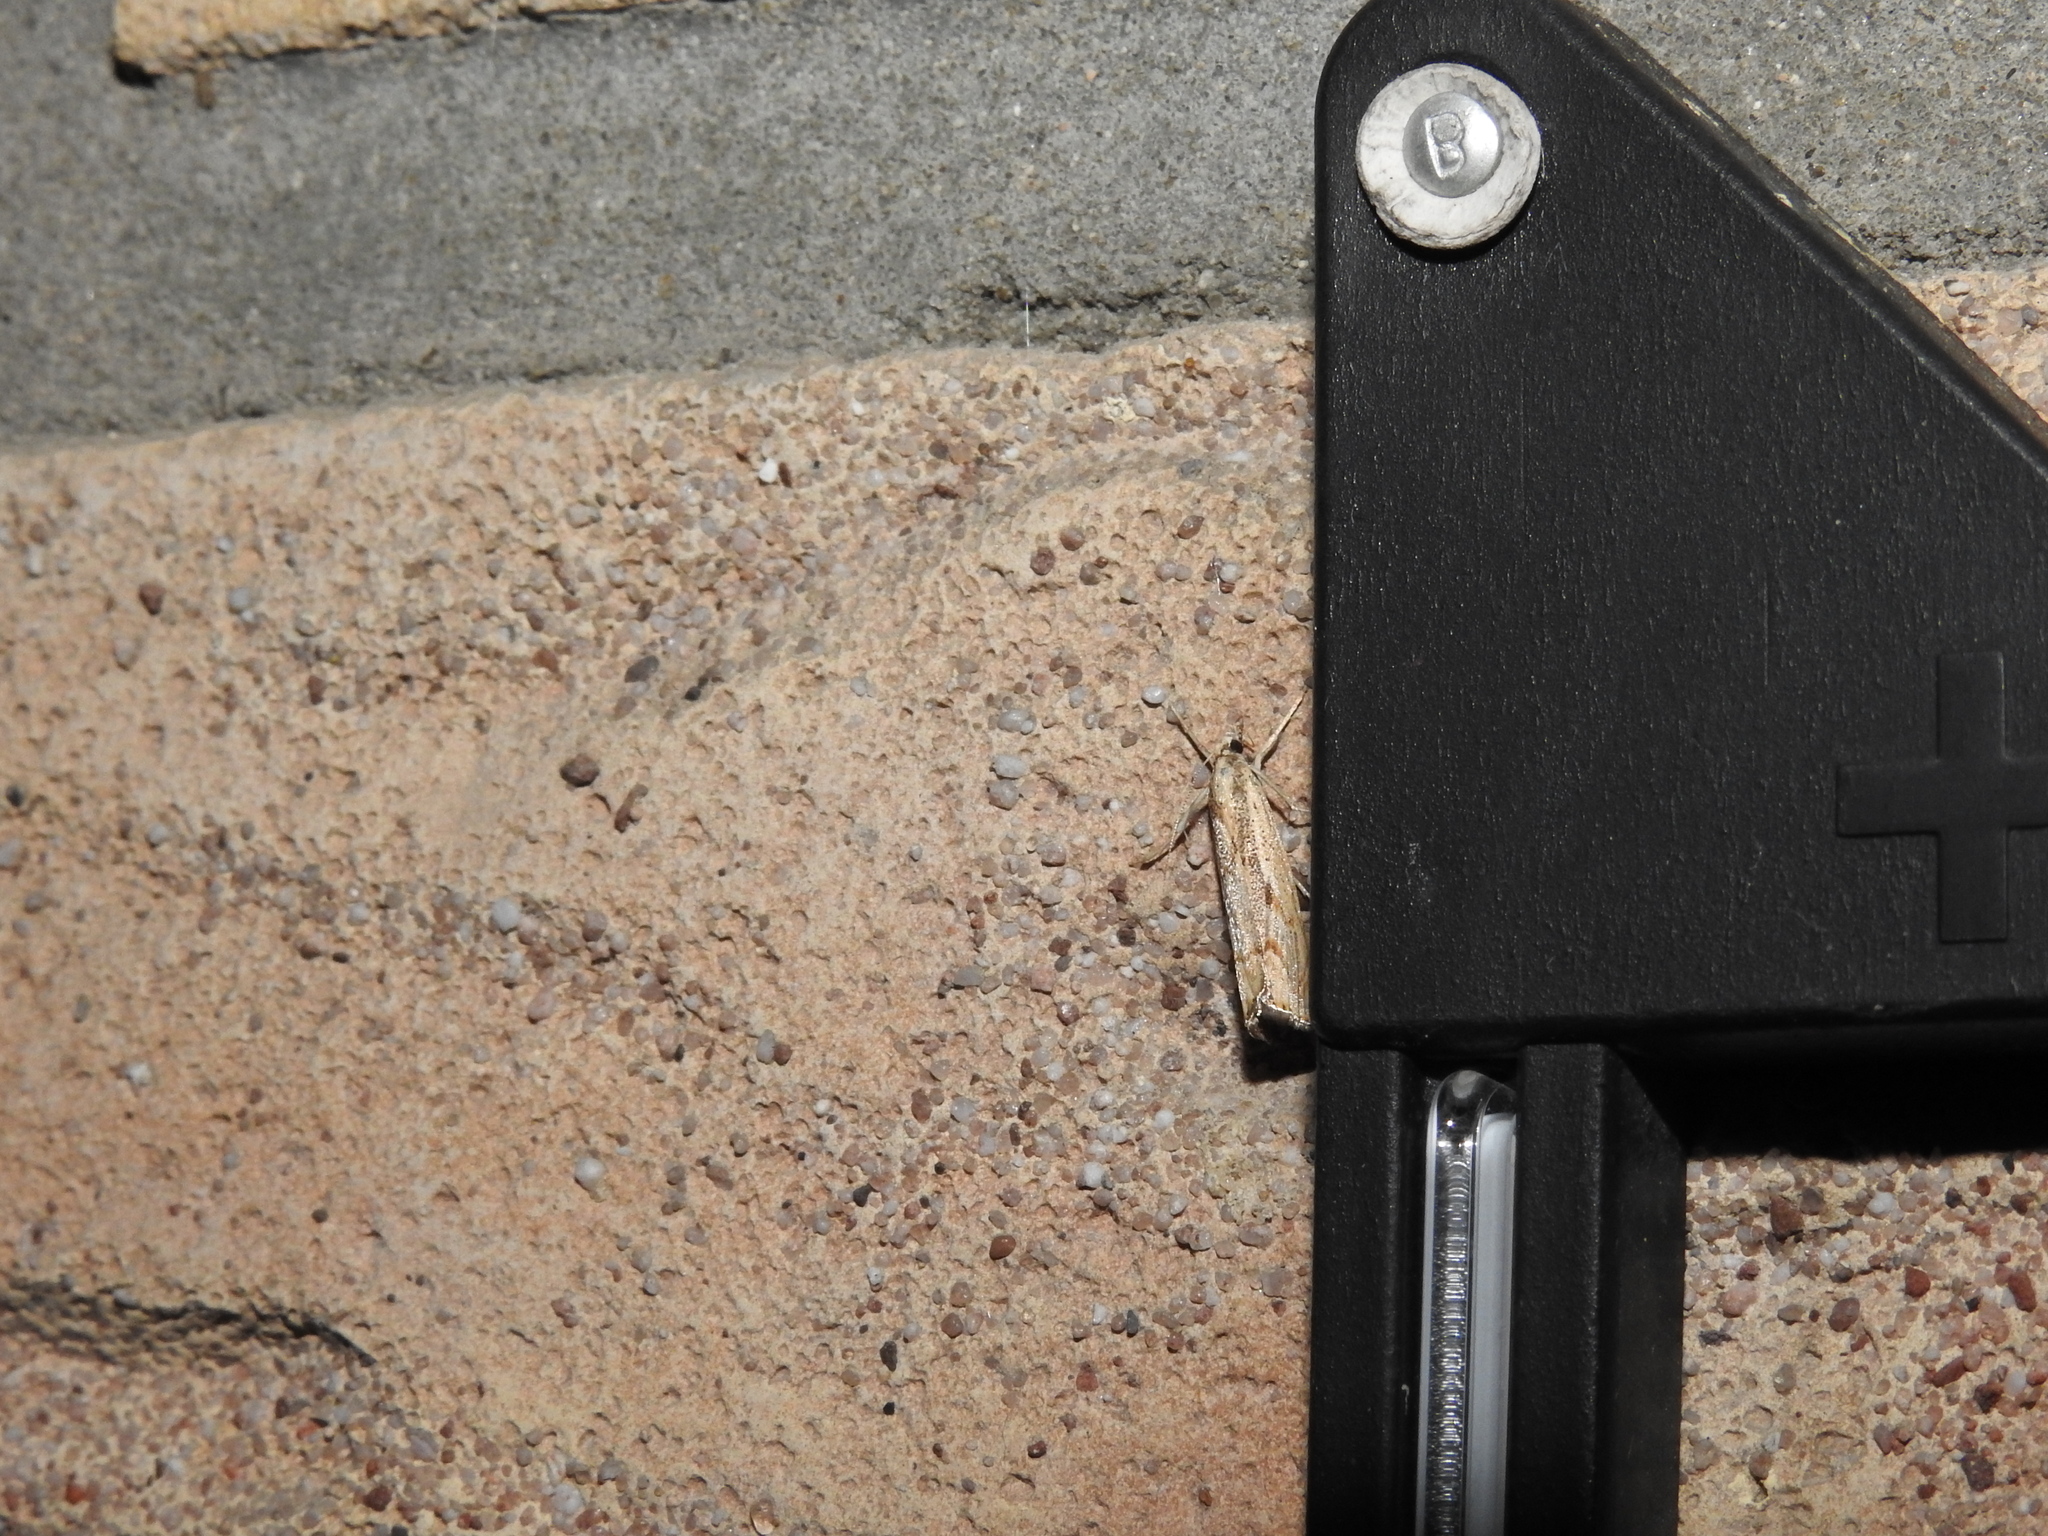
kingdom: Animalia
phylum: Arthropoda
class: Insecta
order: Lepidoptera
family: Crambidae
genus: Agriphila
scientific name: Agriphila geniculea
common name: Elbow-stripe grass-veneer
